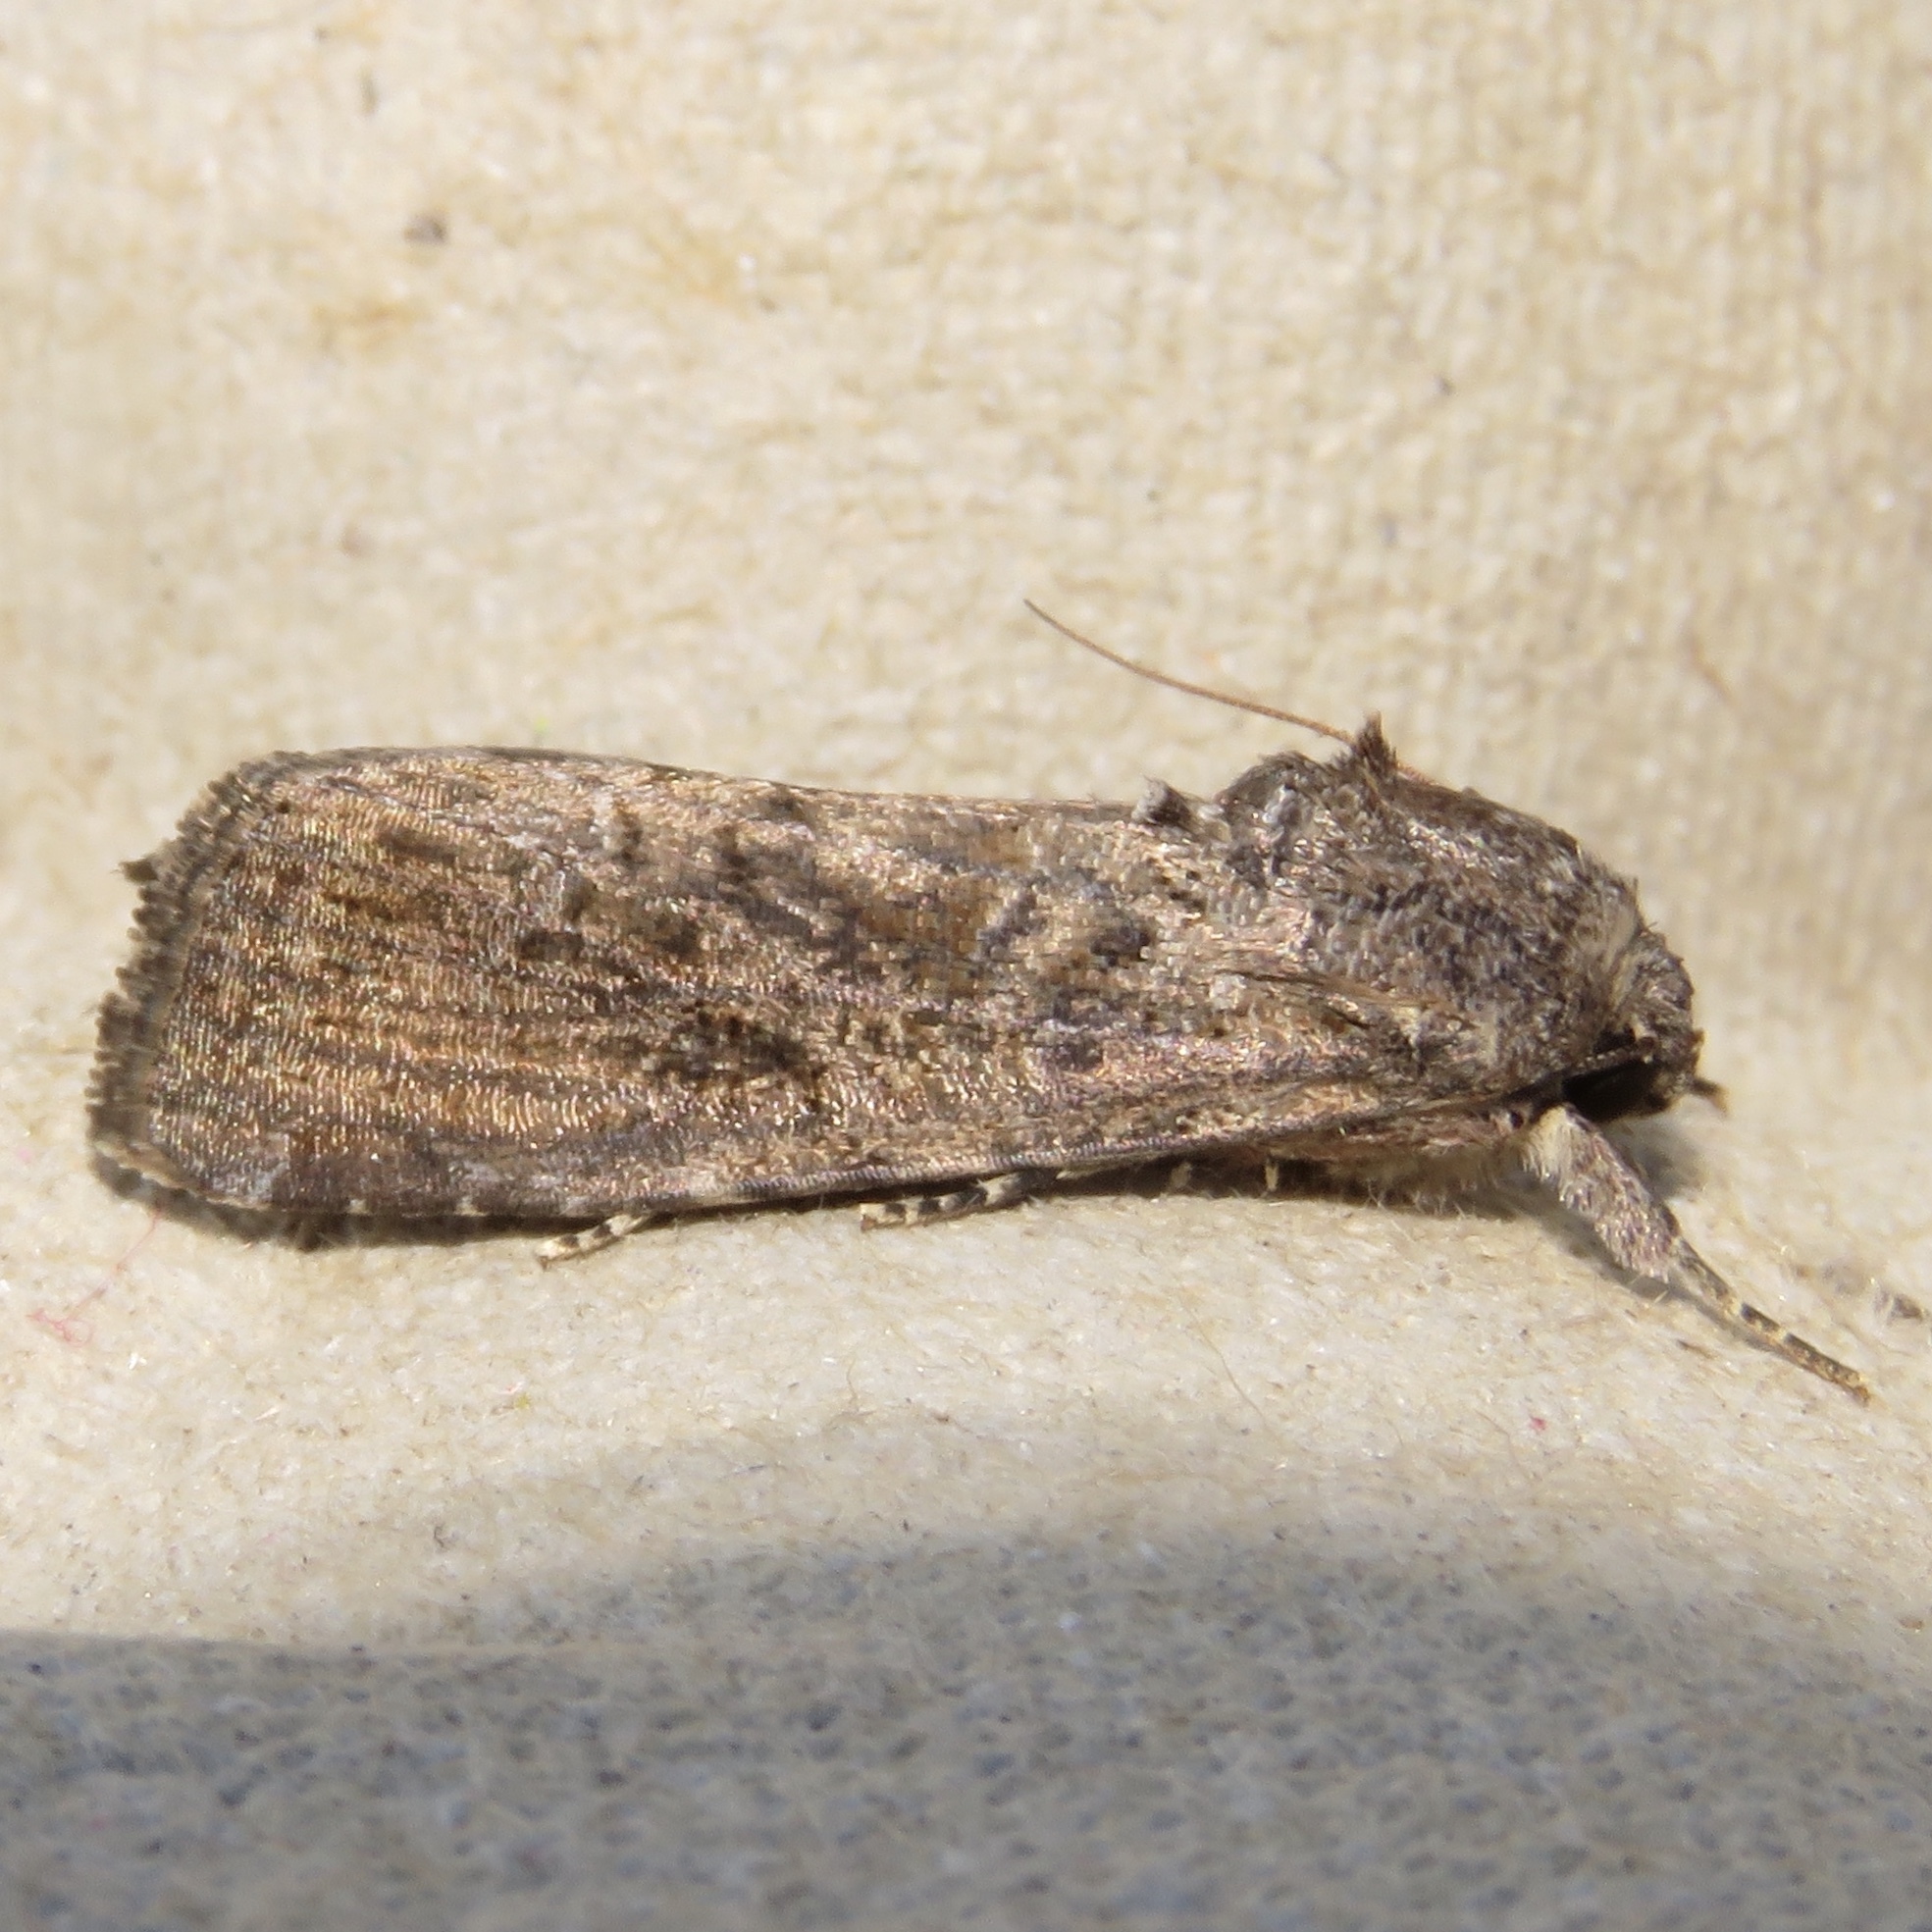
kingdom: Animalia
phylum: Arthropoda
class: Insecta
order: Lepidoptera
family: Noctuidae
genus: Spodoptera
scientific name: Spodoptera frugiperda
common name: Fall armyworm
